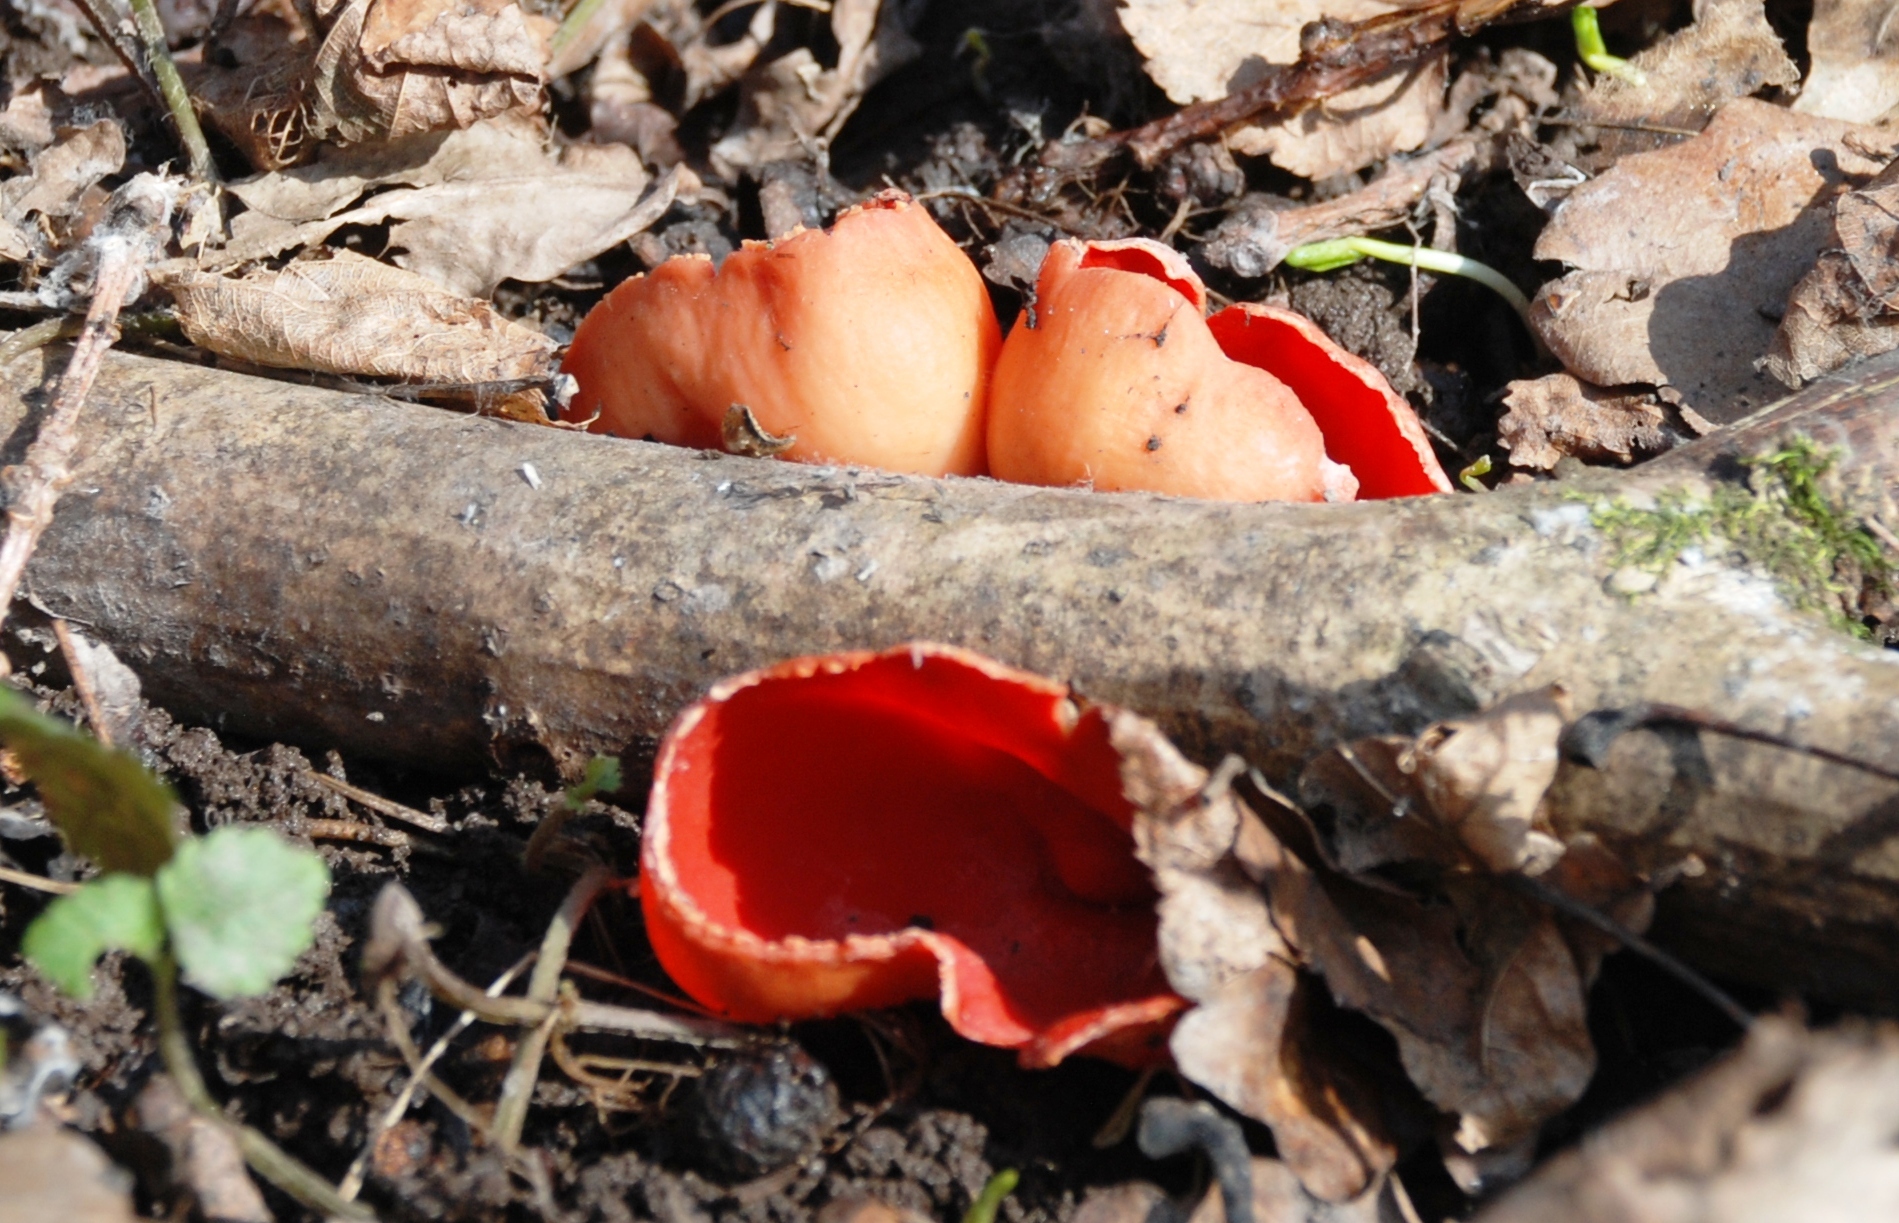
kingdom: Fungi
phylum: Ascomycota
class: Pezizomycetes
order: Pezizales
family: Sarcoscyphaceae
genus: Sarcoscypha
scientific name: Sarcoscypha
